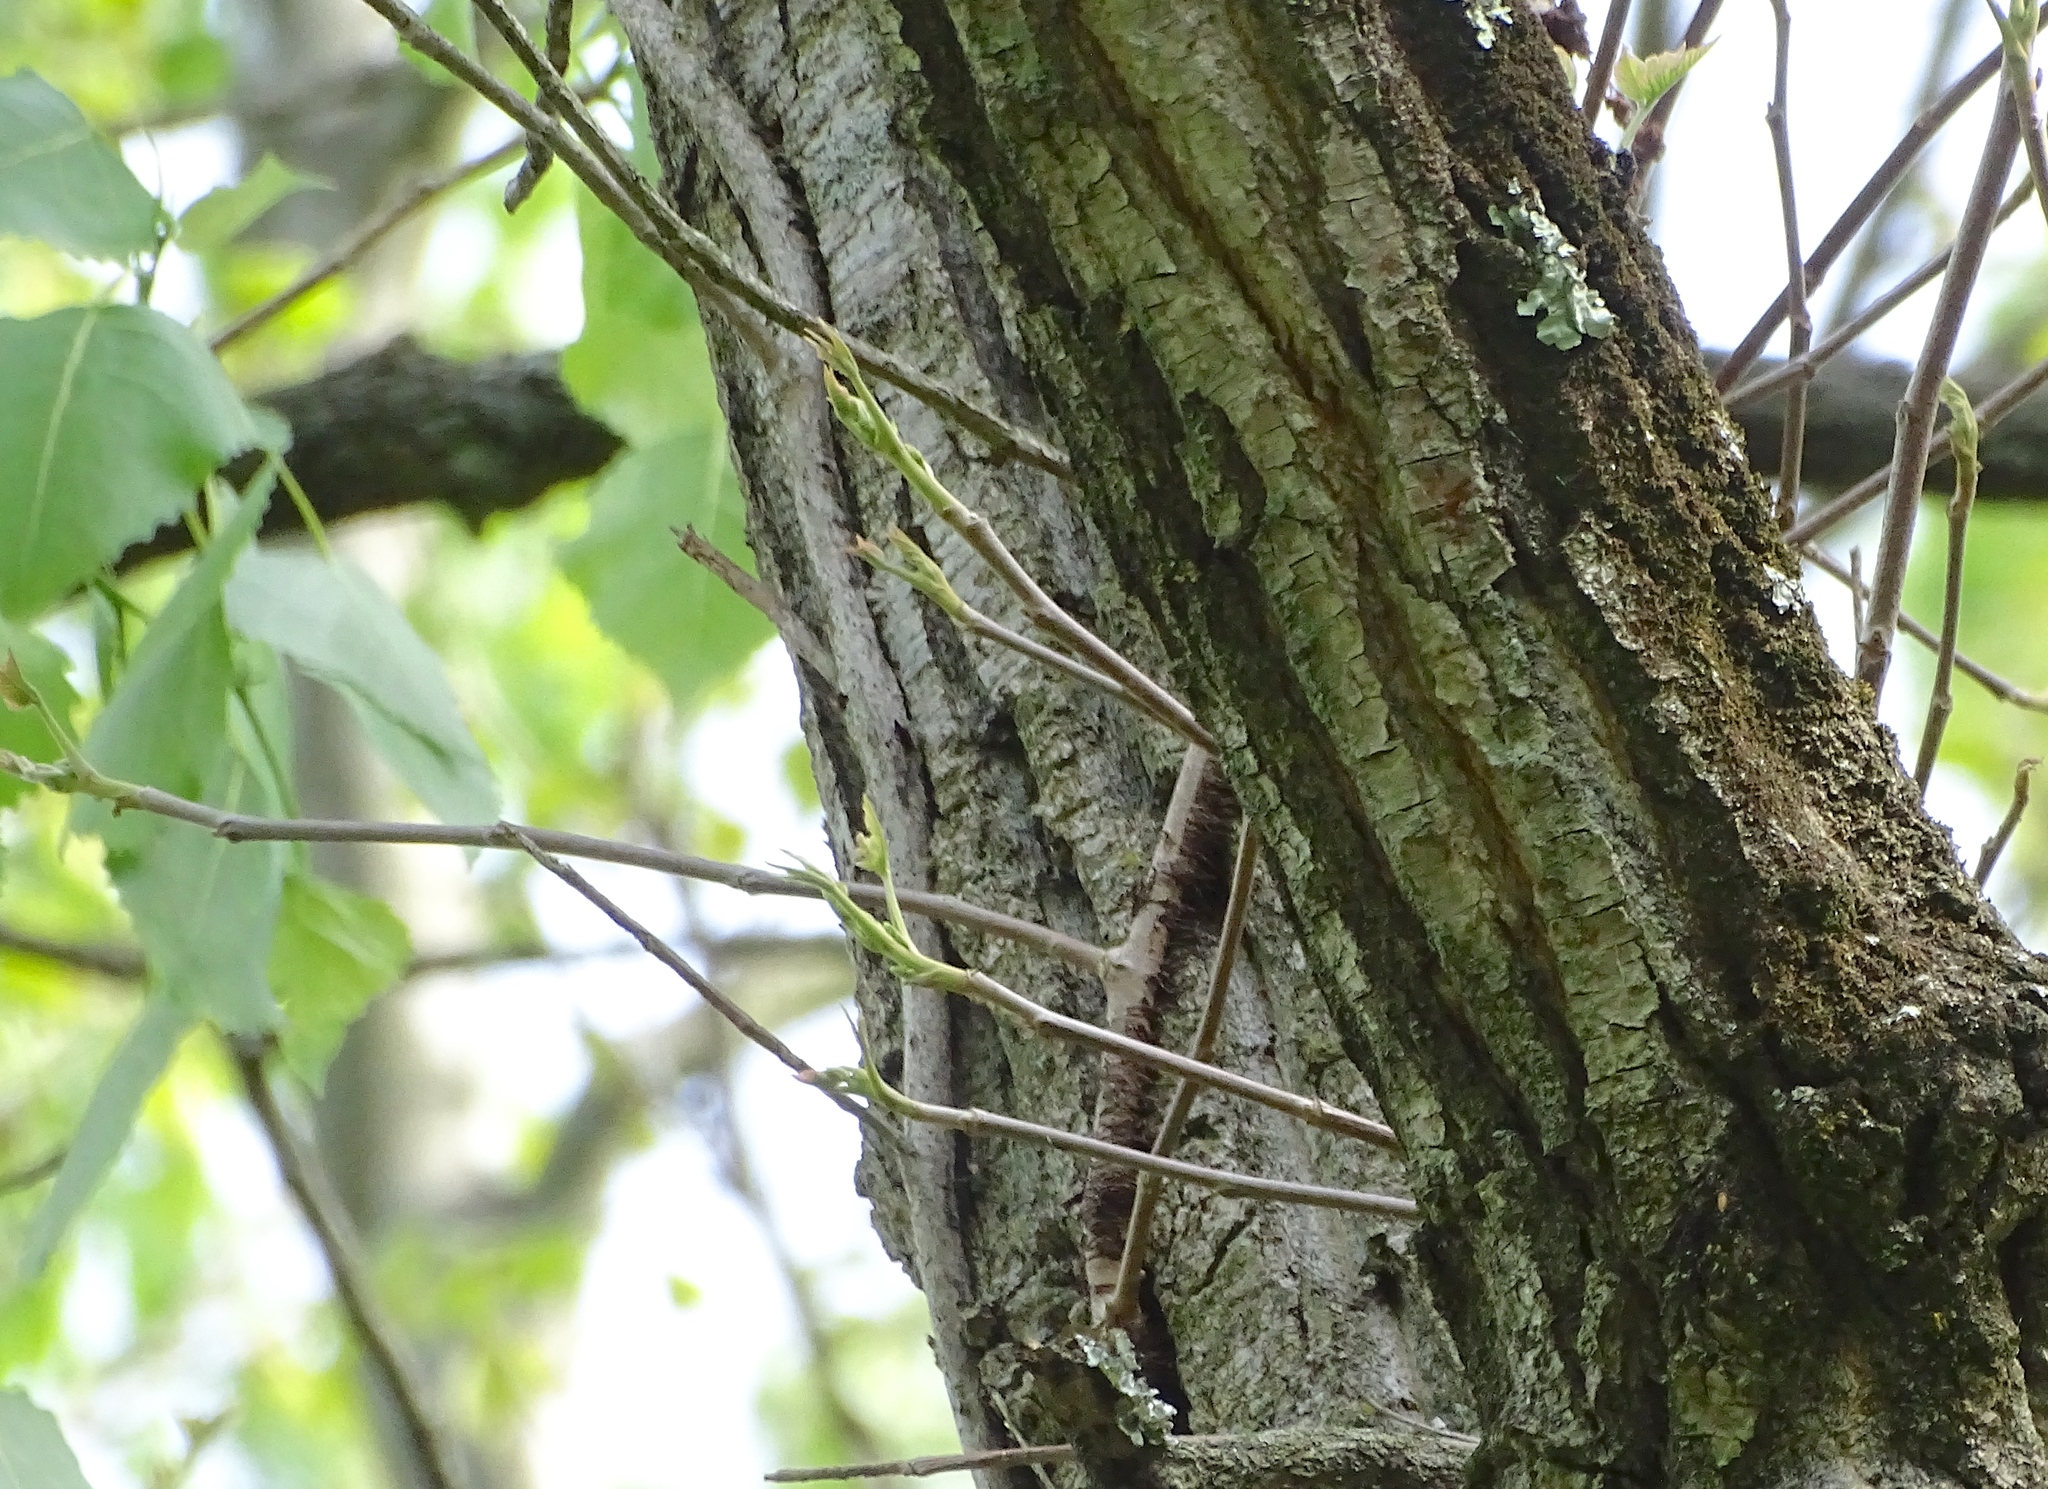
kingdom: Plantae
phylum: Tracheophyta
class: Magnoliopsida
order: Malpighiales
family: Salicaceae
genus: Populus
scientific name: Populus deltoides
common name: Eastern cottonwood
